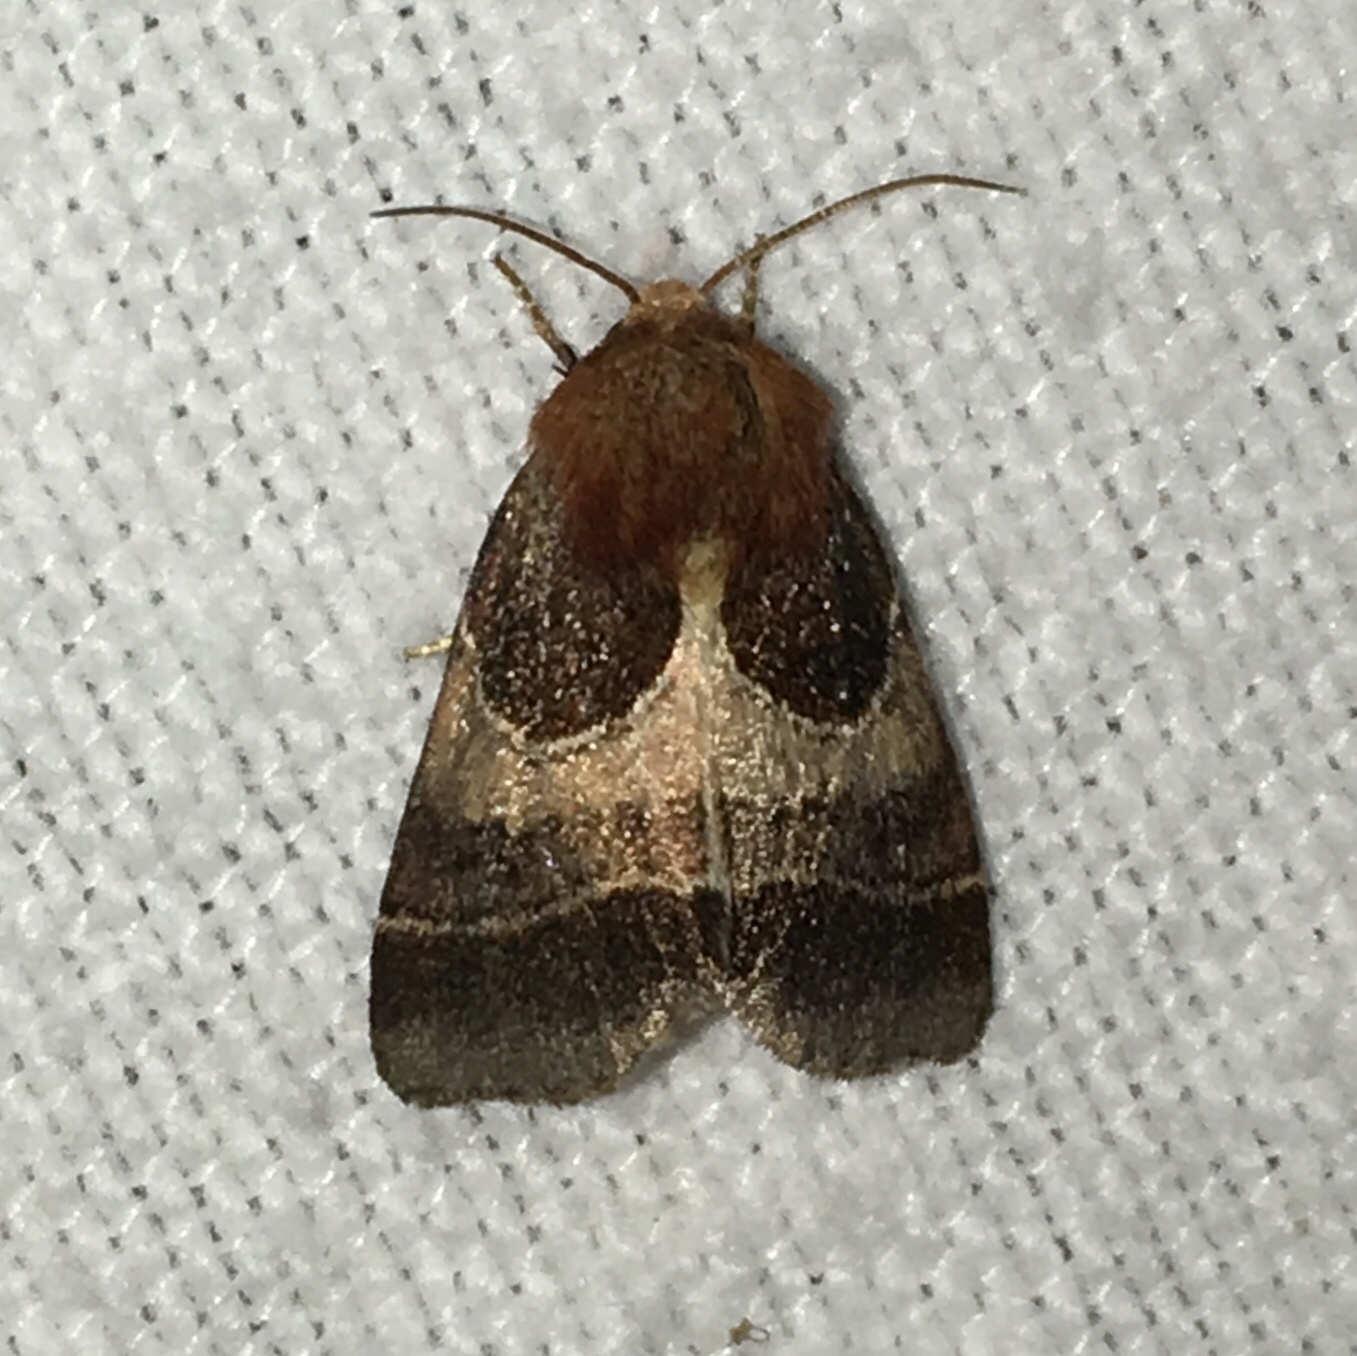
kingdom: Animalia
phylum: Arthropoda
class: Insecta
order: Lepidoptera
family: Noctuidae
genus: Schinia
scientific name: Schinia arcigera
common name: Arcigera flower moth
